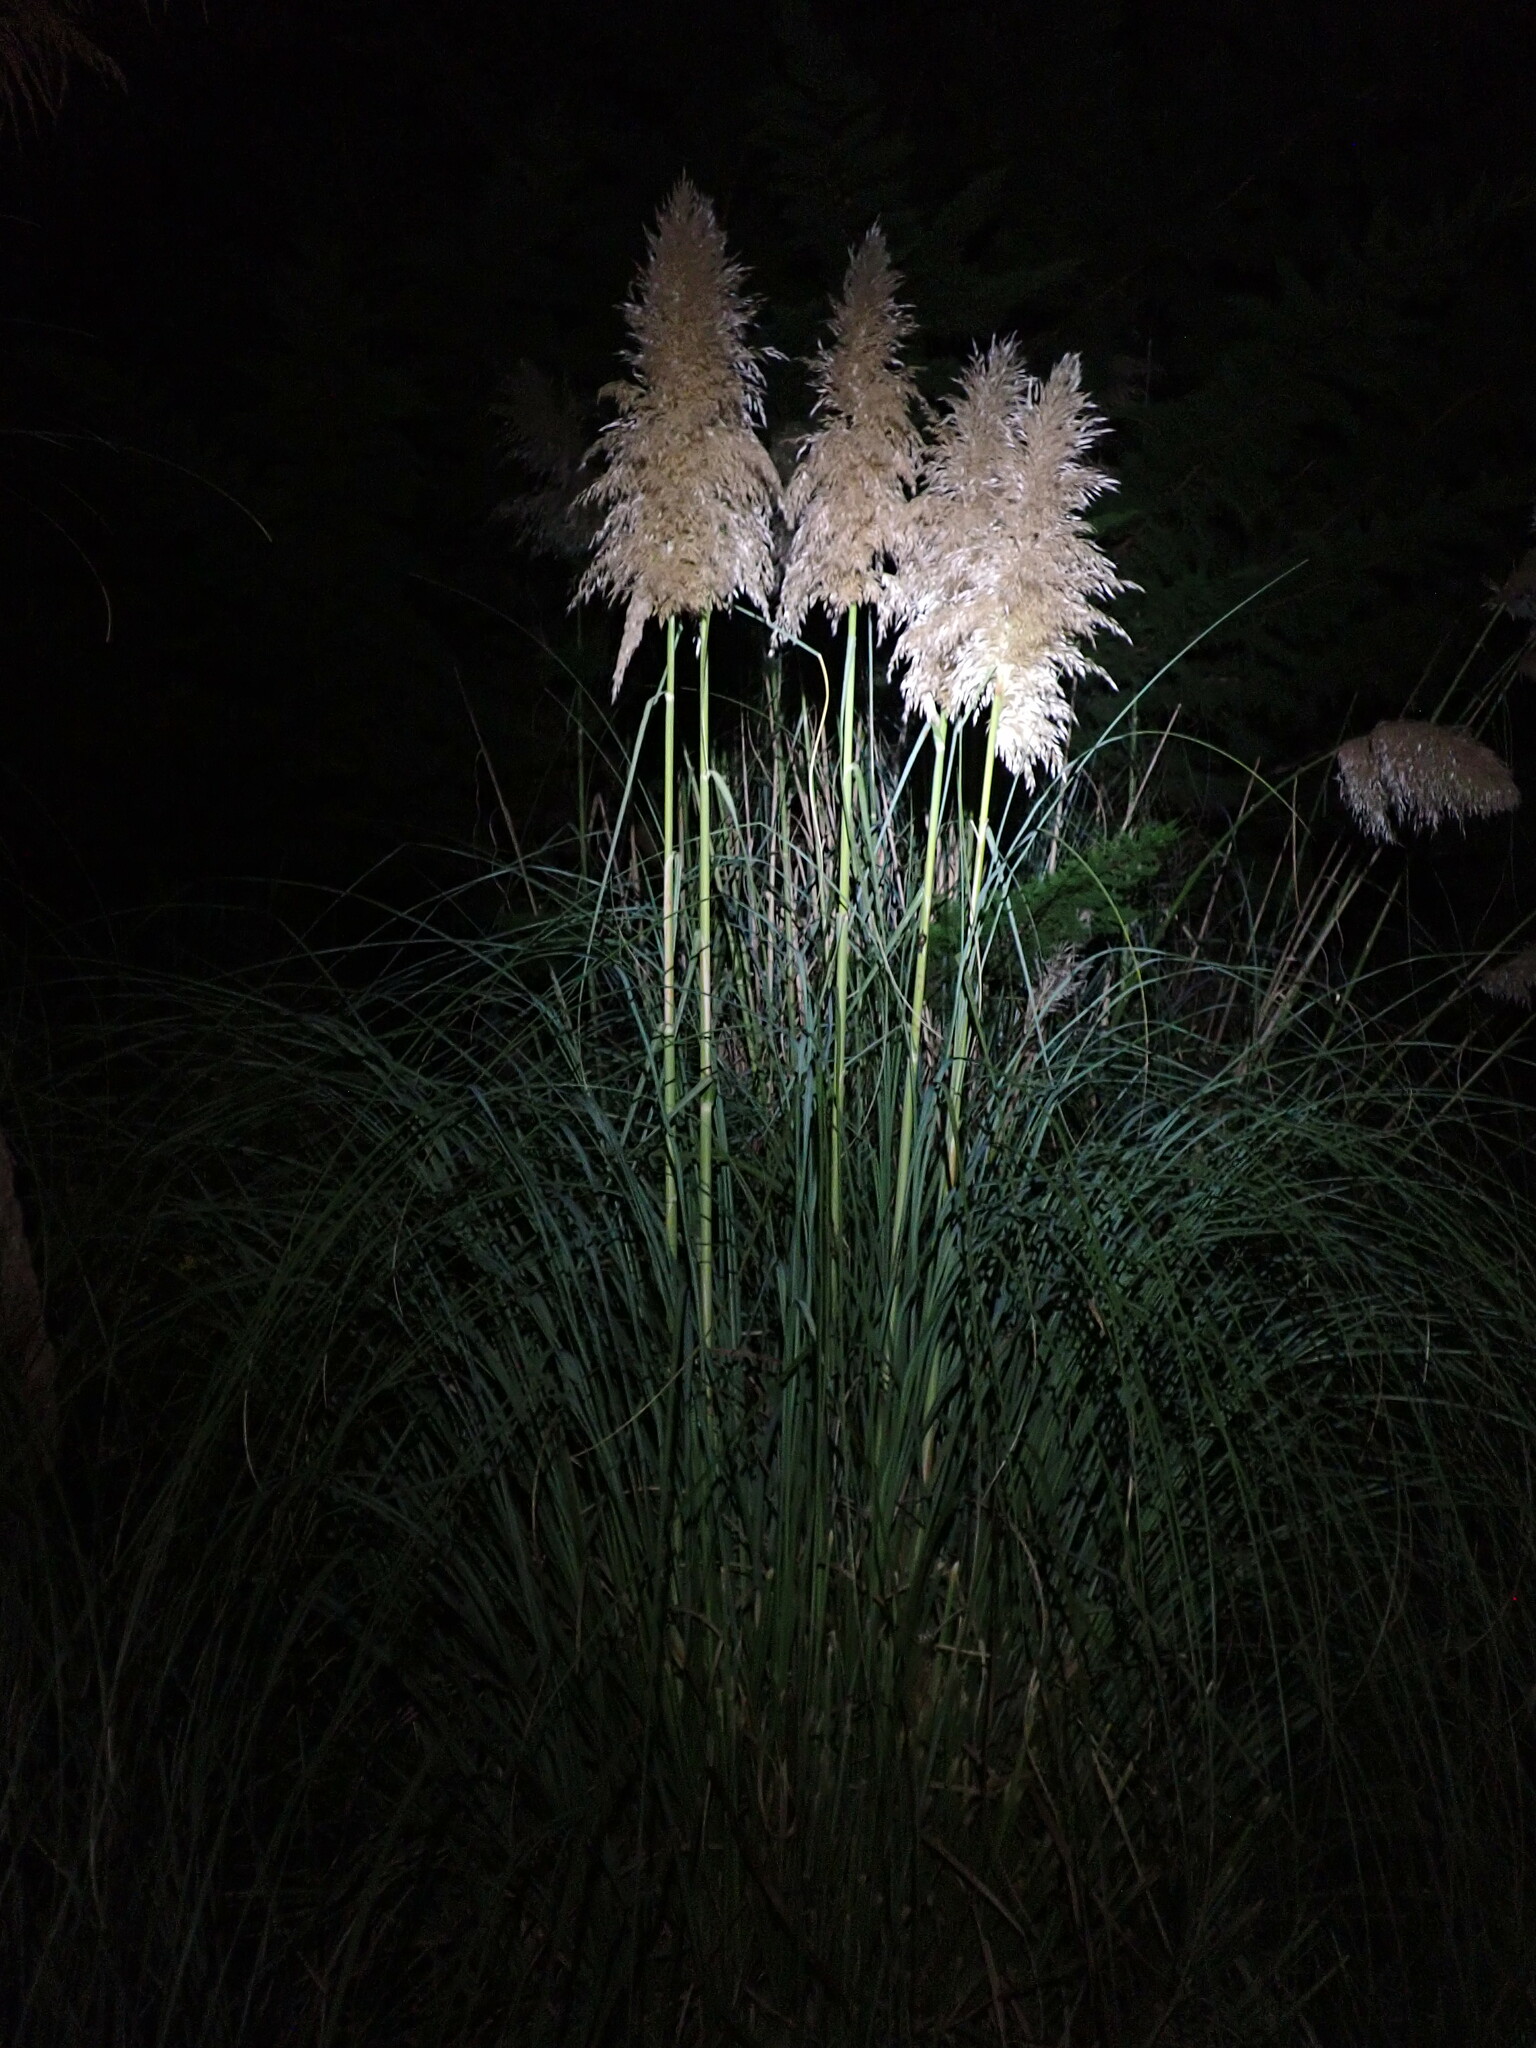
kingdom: Plantae
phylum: Tracheophyta
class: Liliopsida
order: Poales
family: Poaceae
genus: Cortaderia
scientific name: Cortaderia selloana
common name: Uruguayan pampas grass
